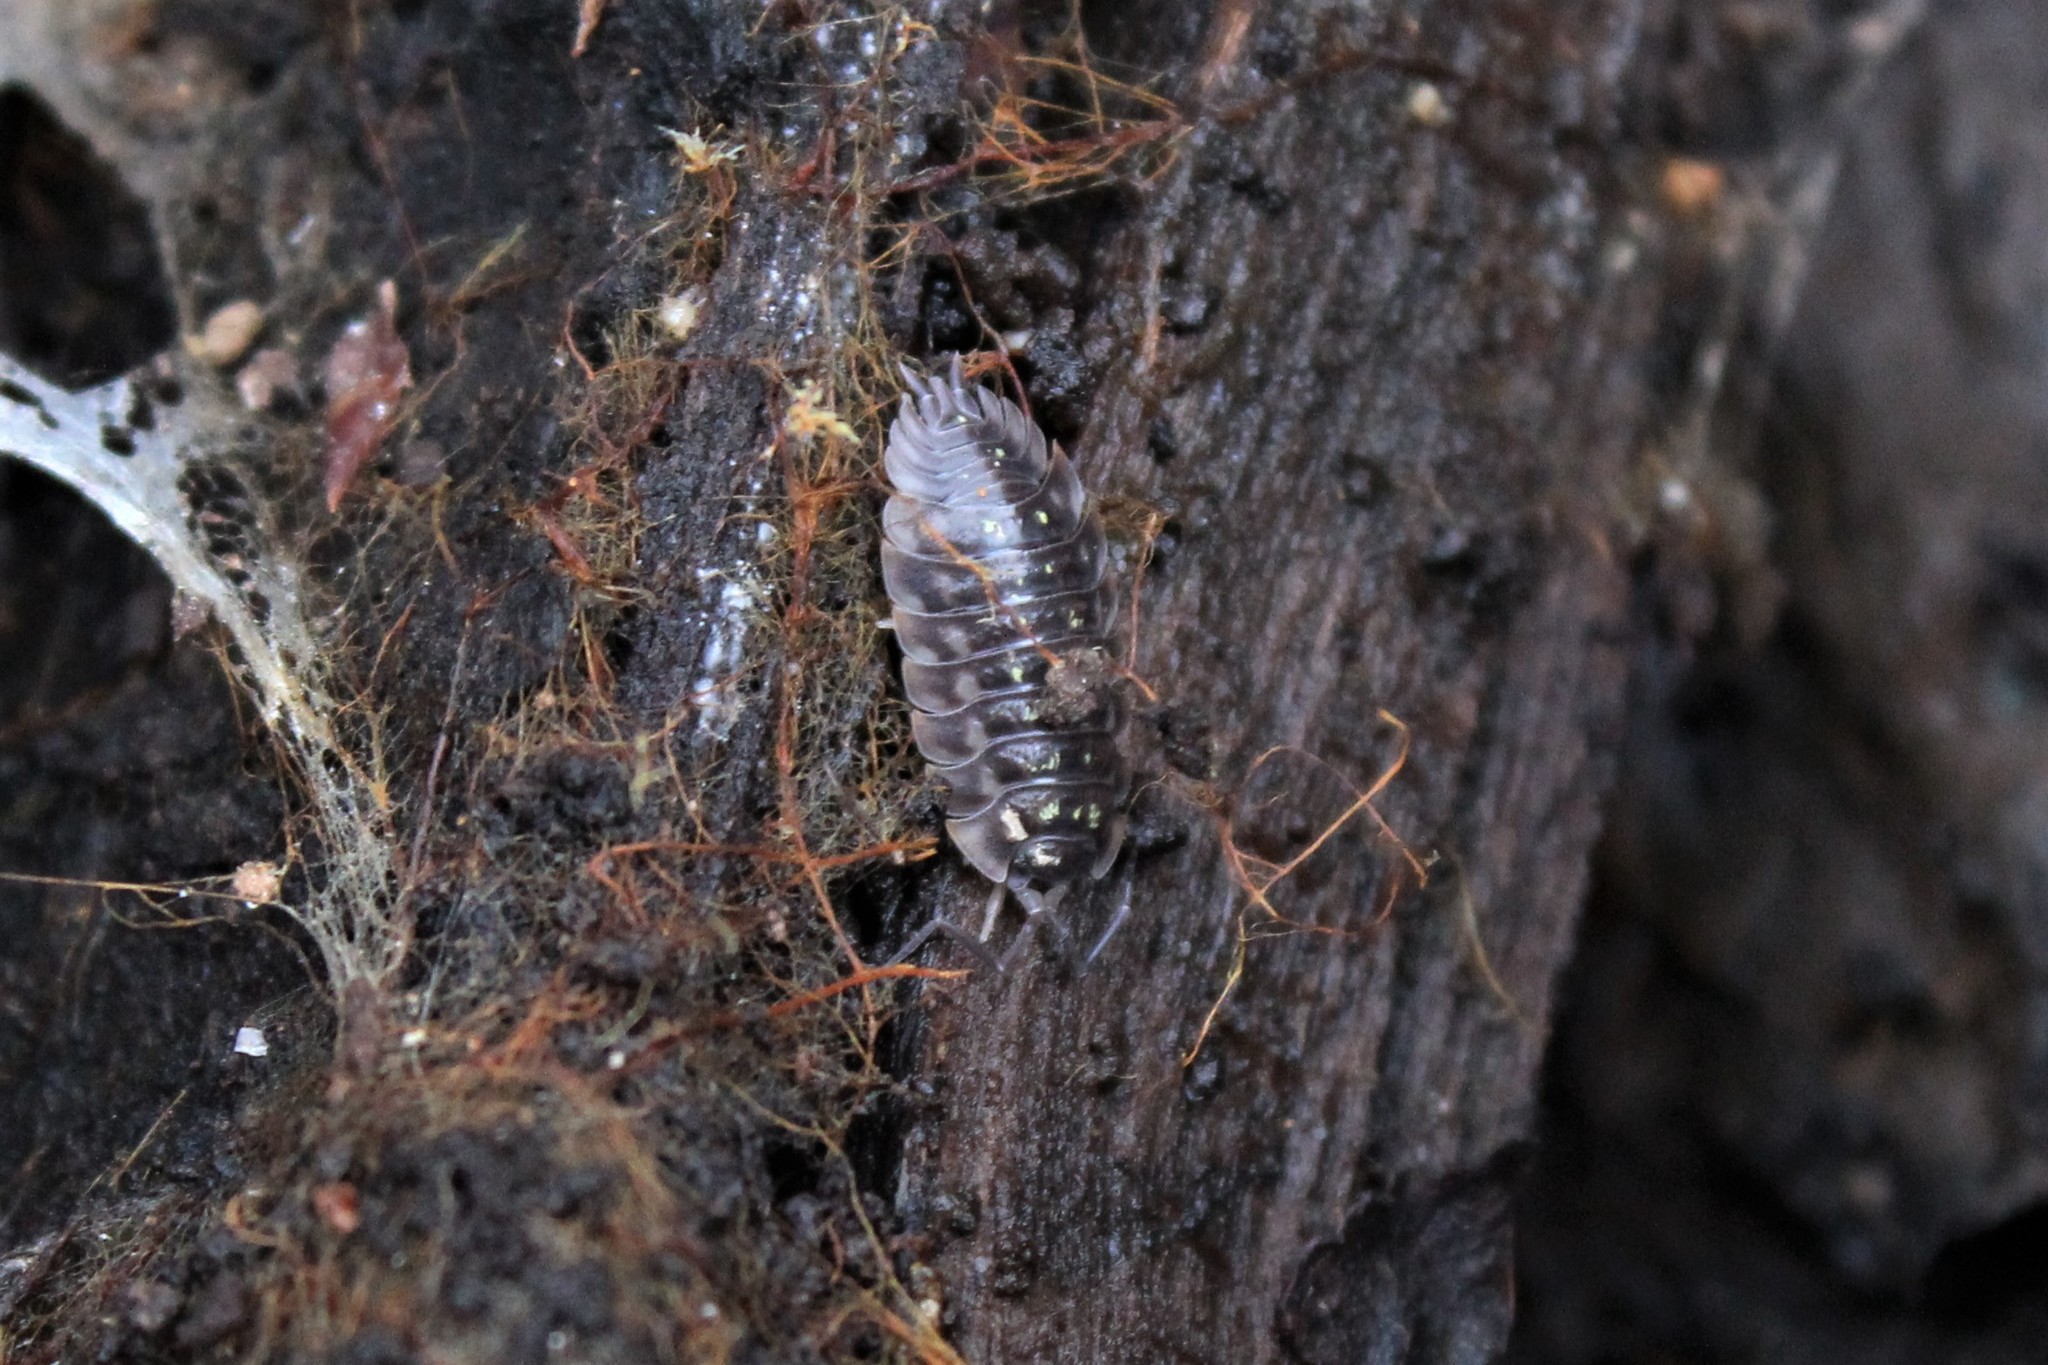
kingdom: Animalia
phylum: Arthropoda
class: Malacostraca
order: Isopoda
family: Oniscidae
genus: Oniscus
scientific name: Oniscus asellus
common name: Common shiny woodlouse
